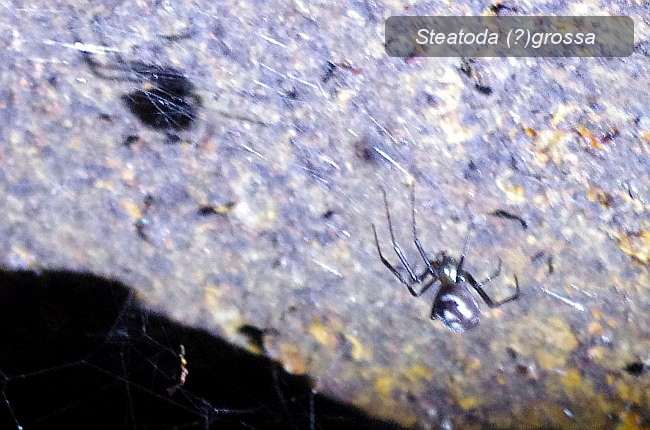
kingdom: Animalia
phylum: Arthropoda
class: Arachnida
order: Araneae
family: Theridiidae
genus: Steatoda
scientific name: Steatoda grossa
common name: False black widow
